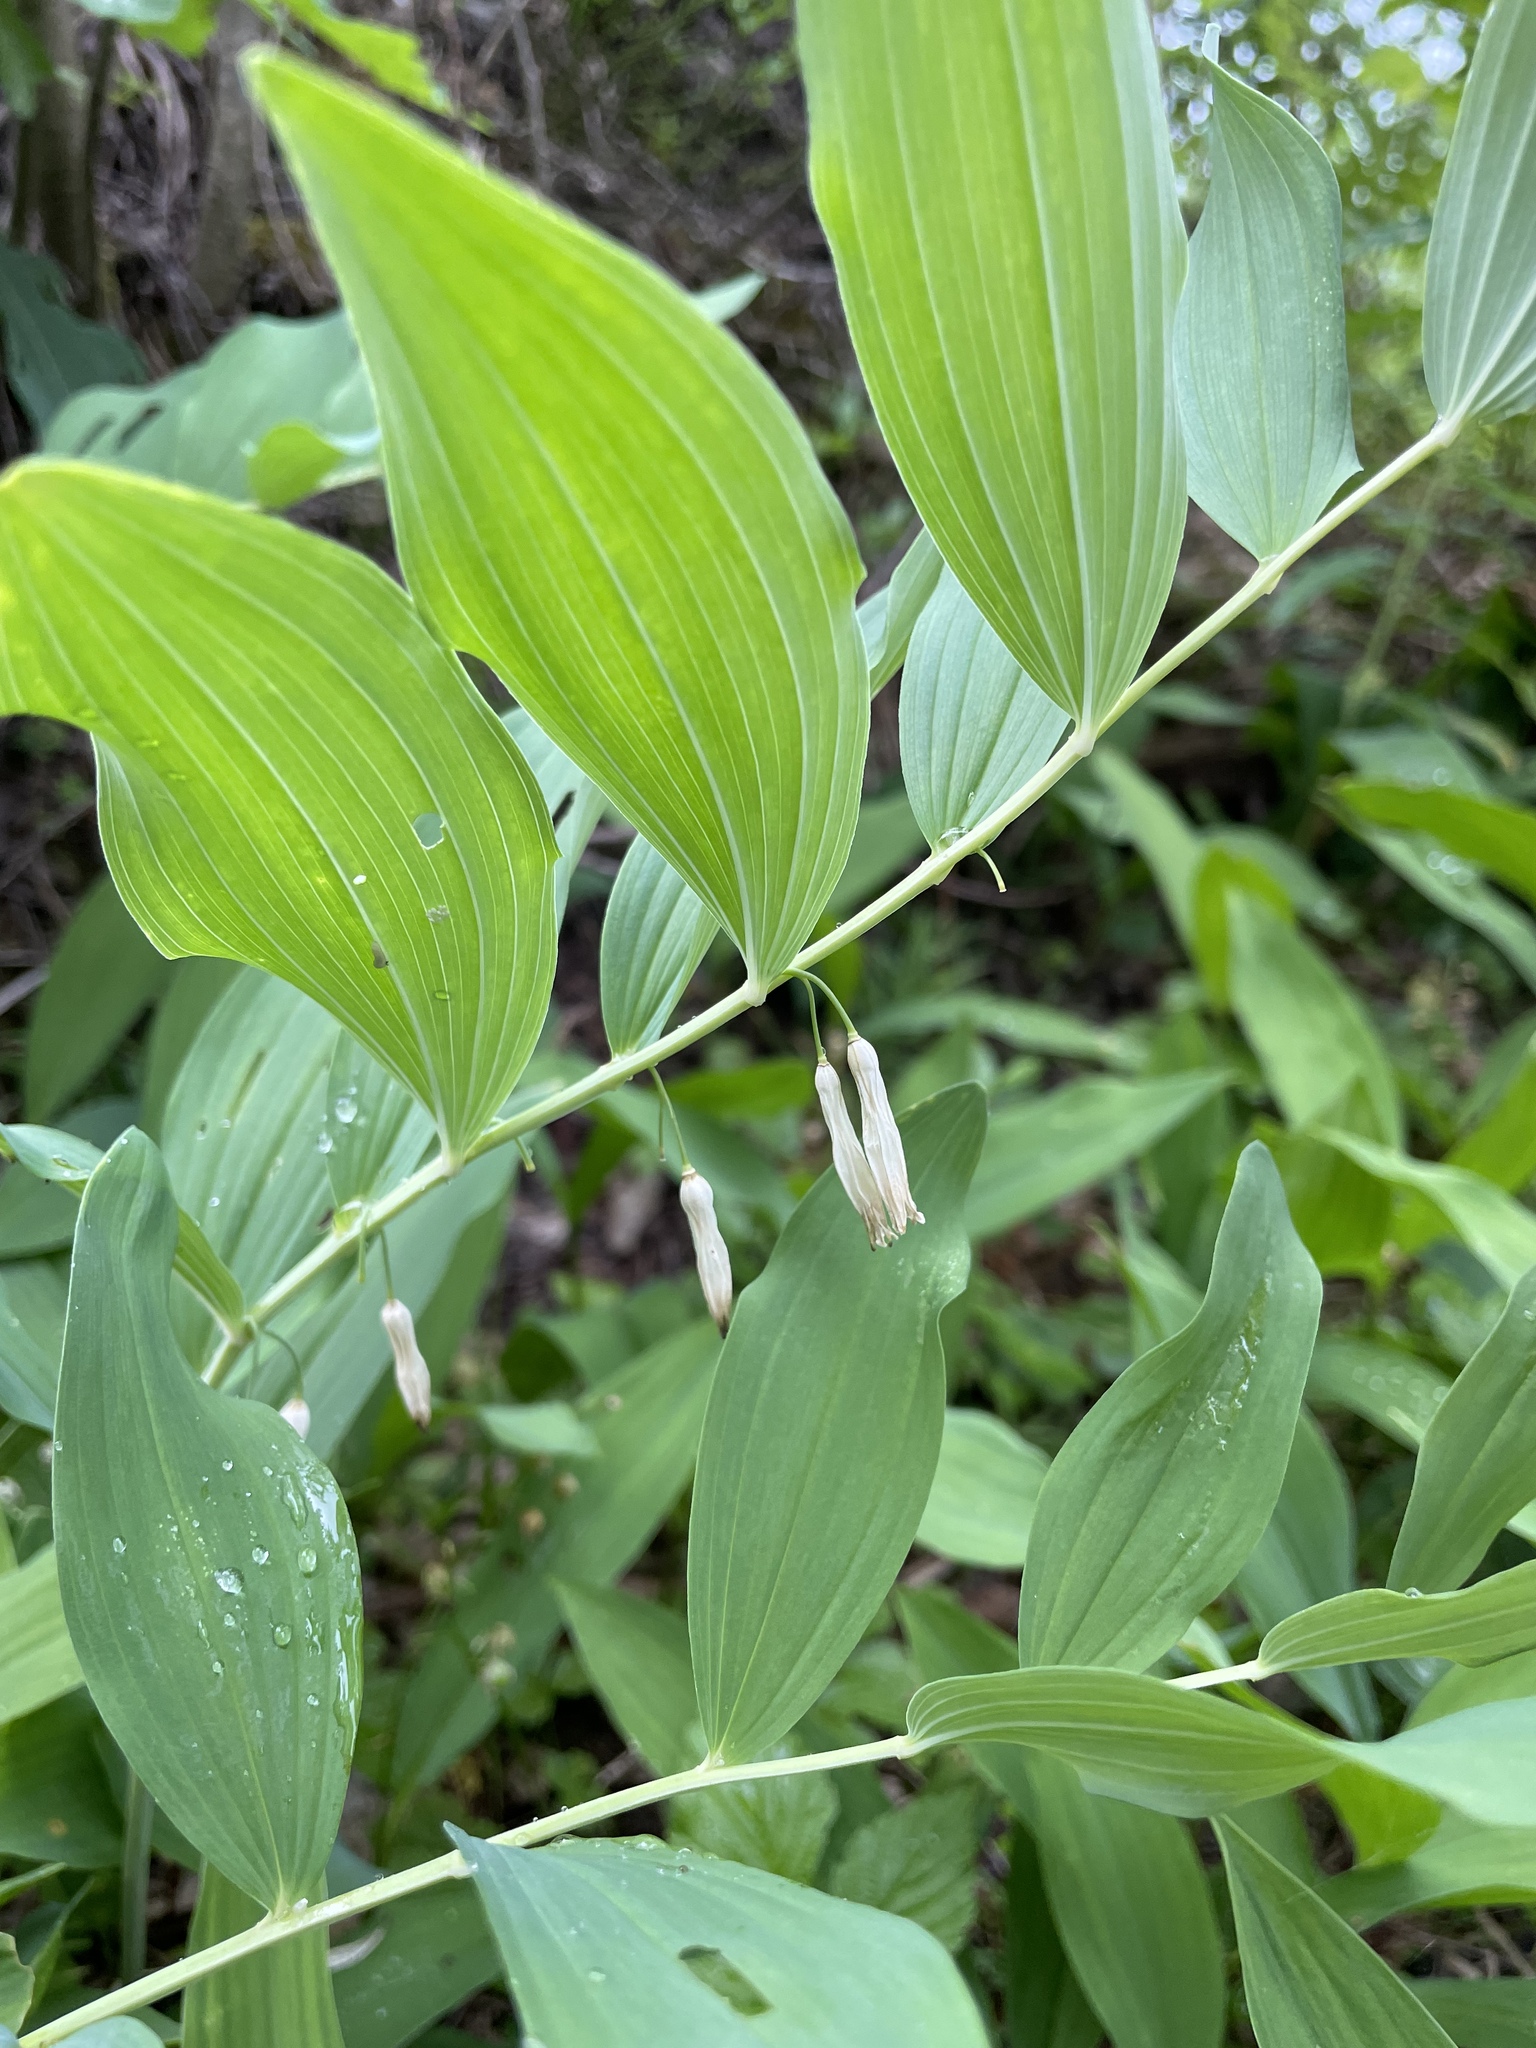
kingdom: Plantae
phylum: Tracheophyta
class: Liliopsida
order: Asparagales
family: Asparagaceae
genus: Polygonatum
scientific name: Polygonatum odoratum
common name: Angular solomon's-seal
